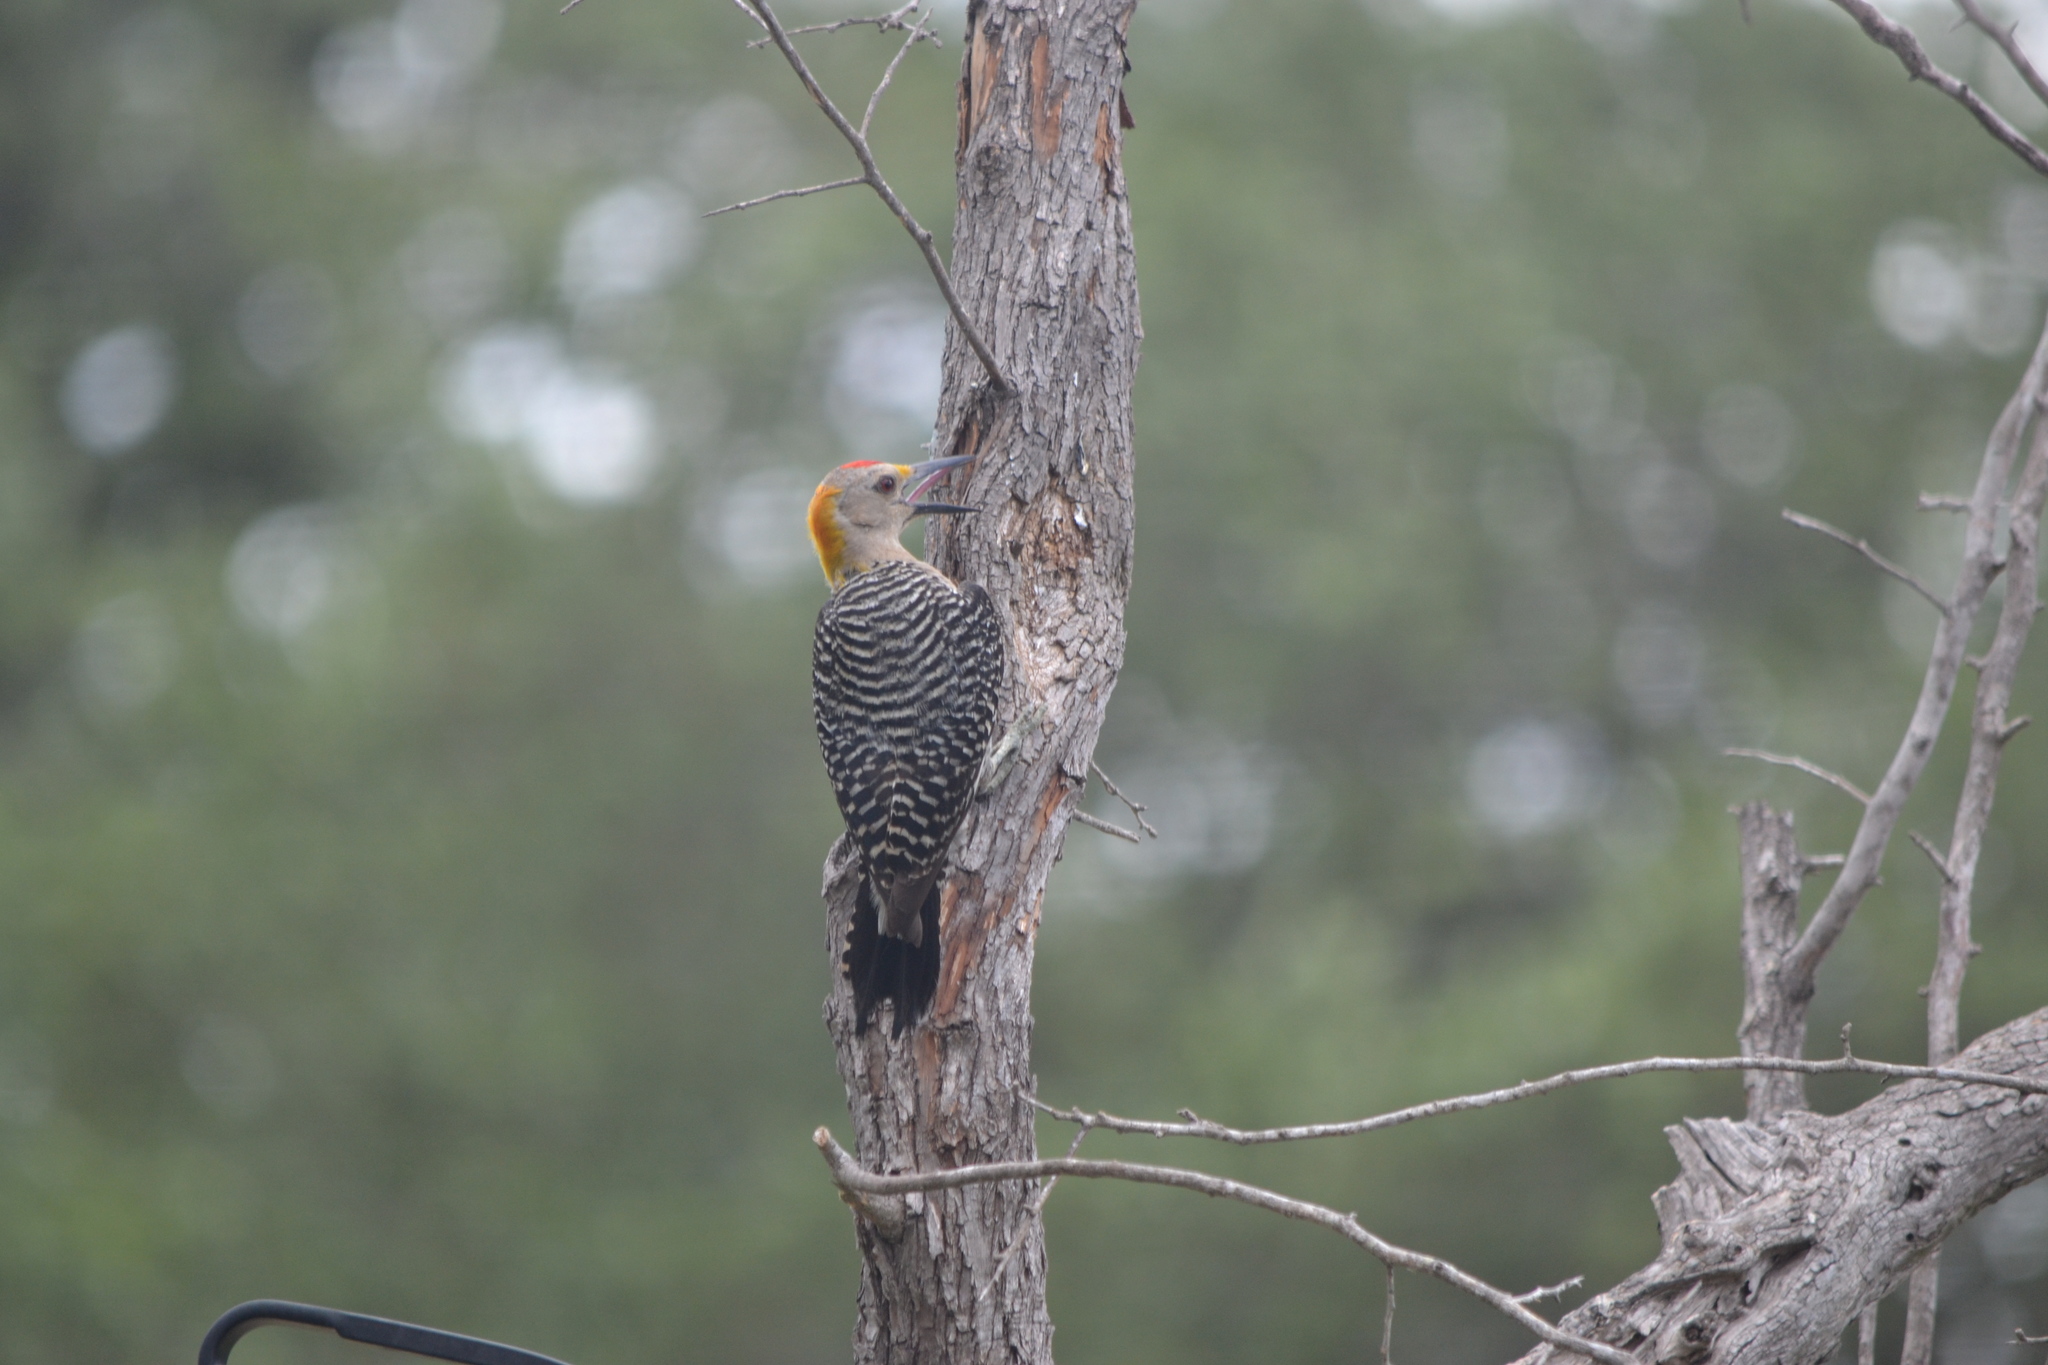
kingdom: Animalia
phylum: Chordata
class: Aves
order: Piciformes
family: Picidae
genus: Melanerpes
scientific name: Melanerpes aurifrons
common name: Golden-fronted woodpecker
